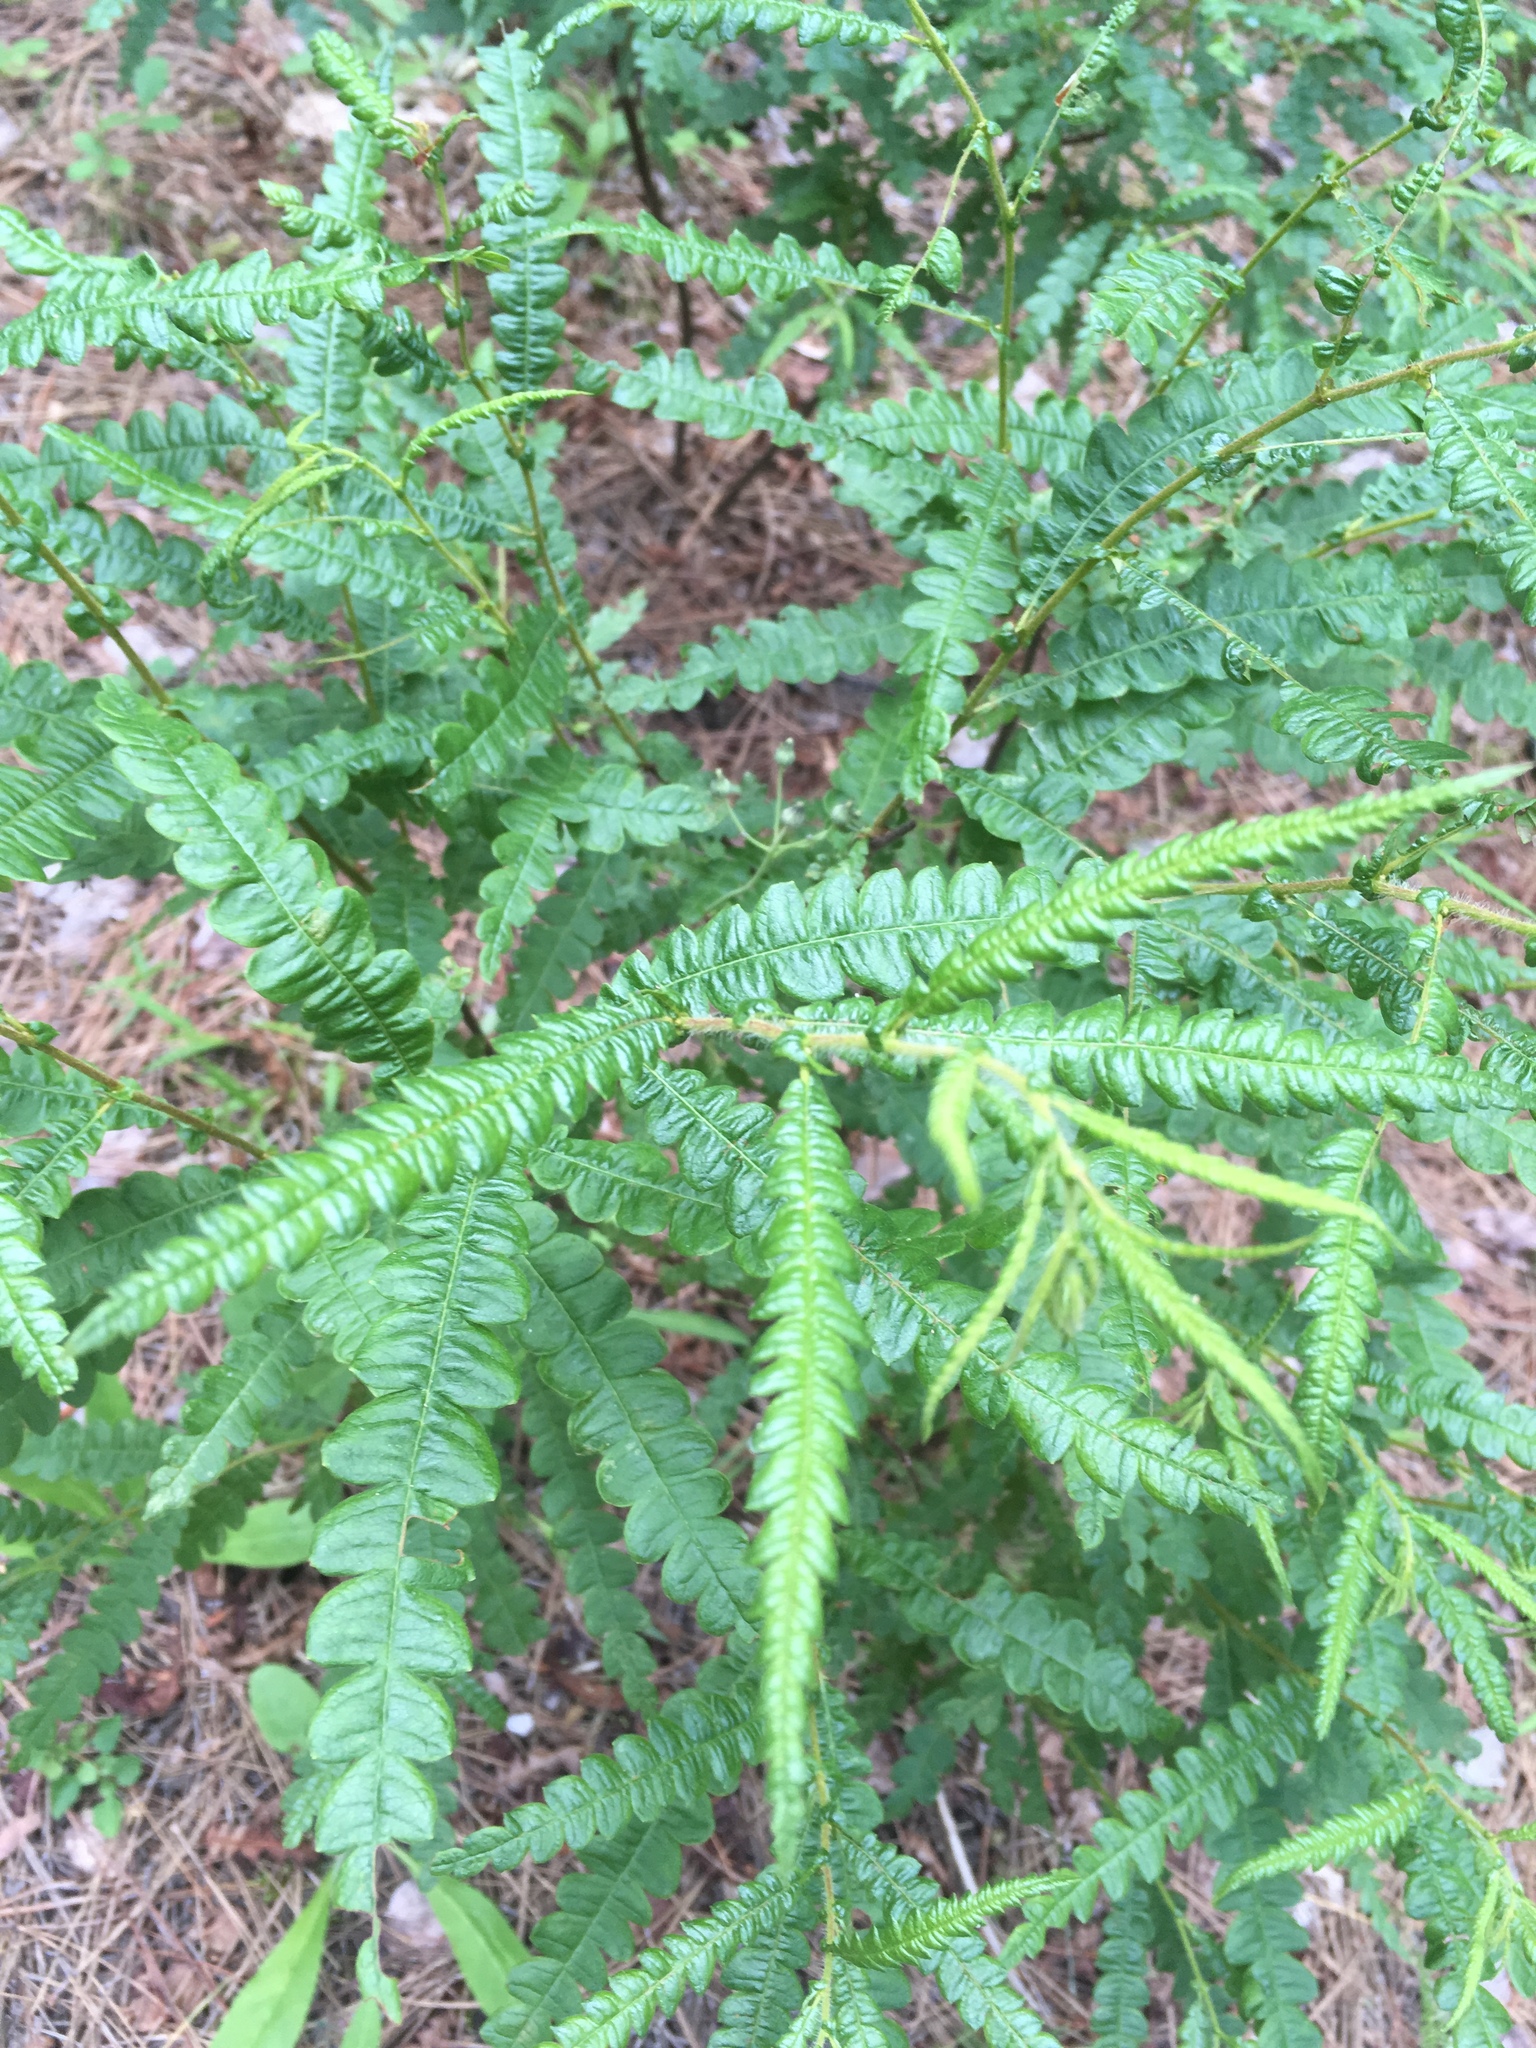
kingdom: Plantae
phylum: Tracheophyta
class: Magnoliopsida
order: Fagales
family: Myricaceae
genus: Comptonia
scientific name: Comptonia peregrina
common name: Sweet-fern
